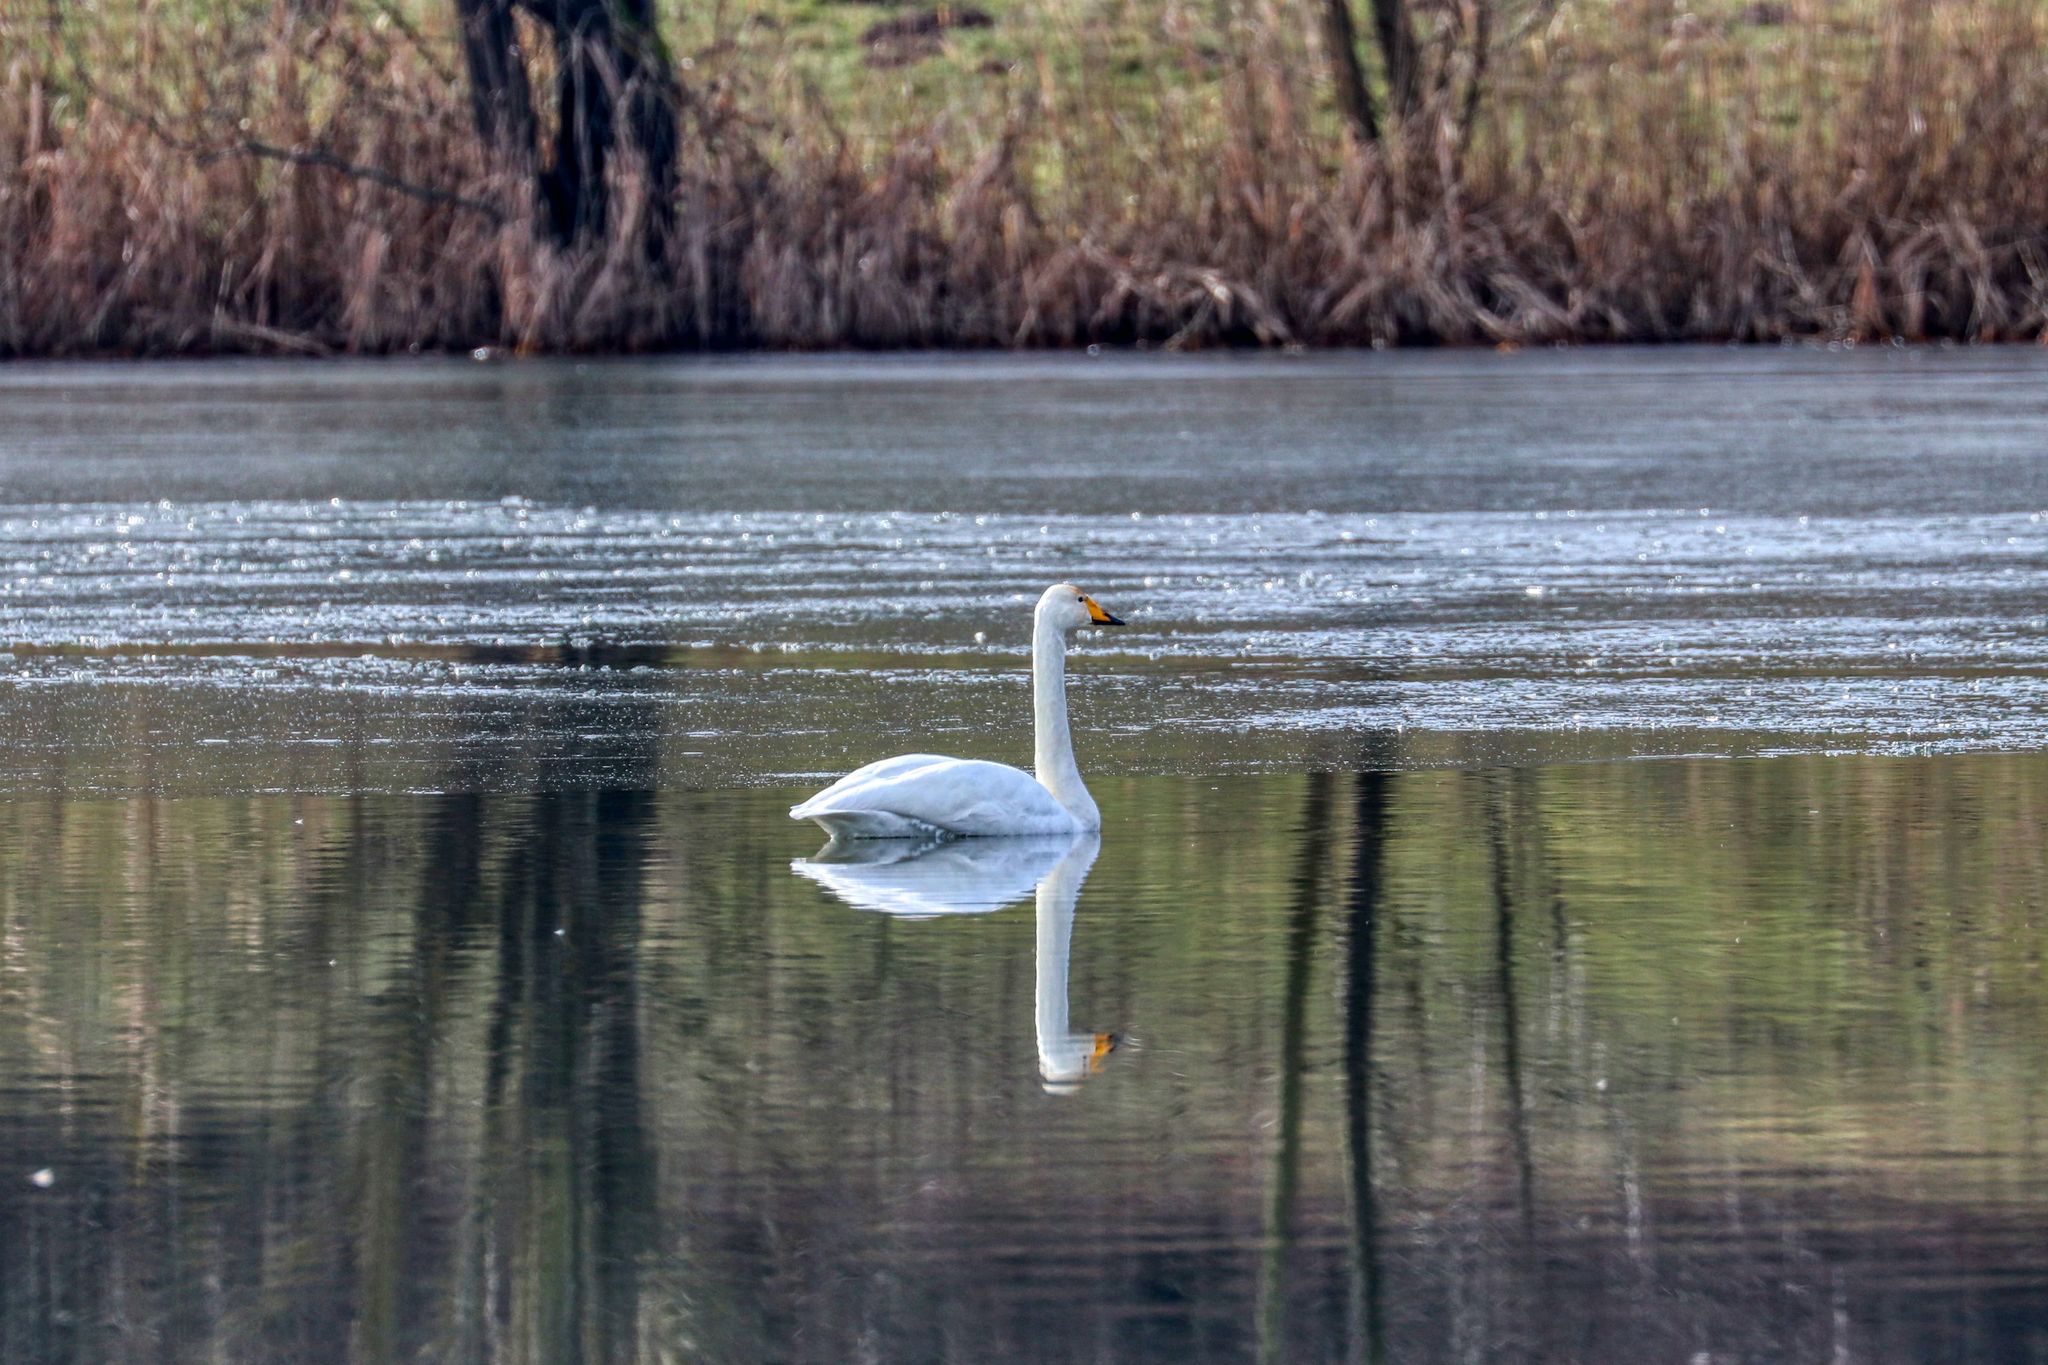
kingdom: Animalia
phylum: Chordata
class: Aves
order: Anseriformes
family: Anatidae
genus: Cygnus
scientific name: Cygnus cygnus
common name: Whooper swan
